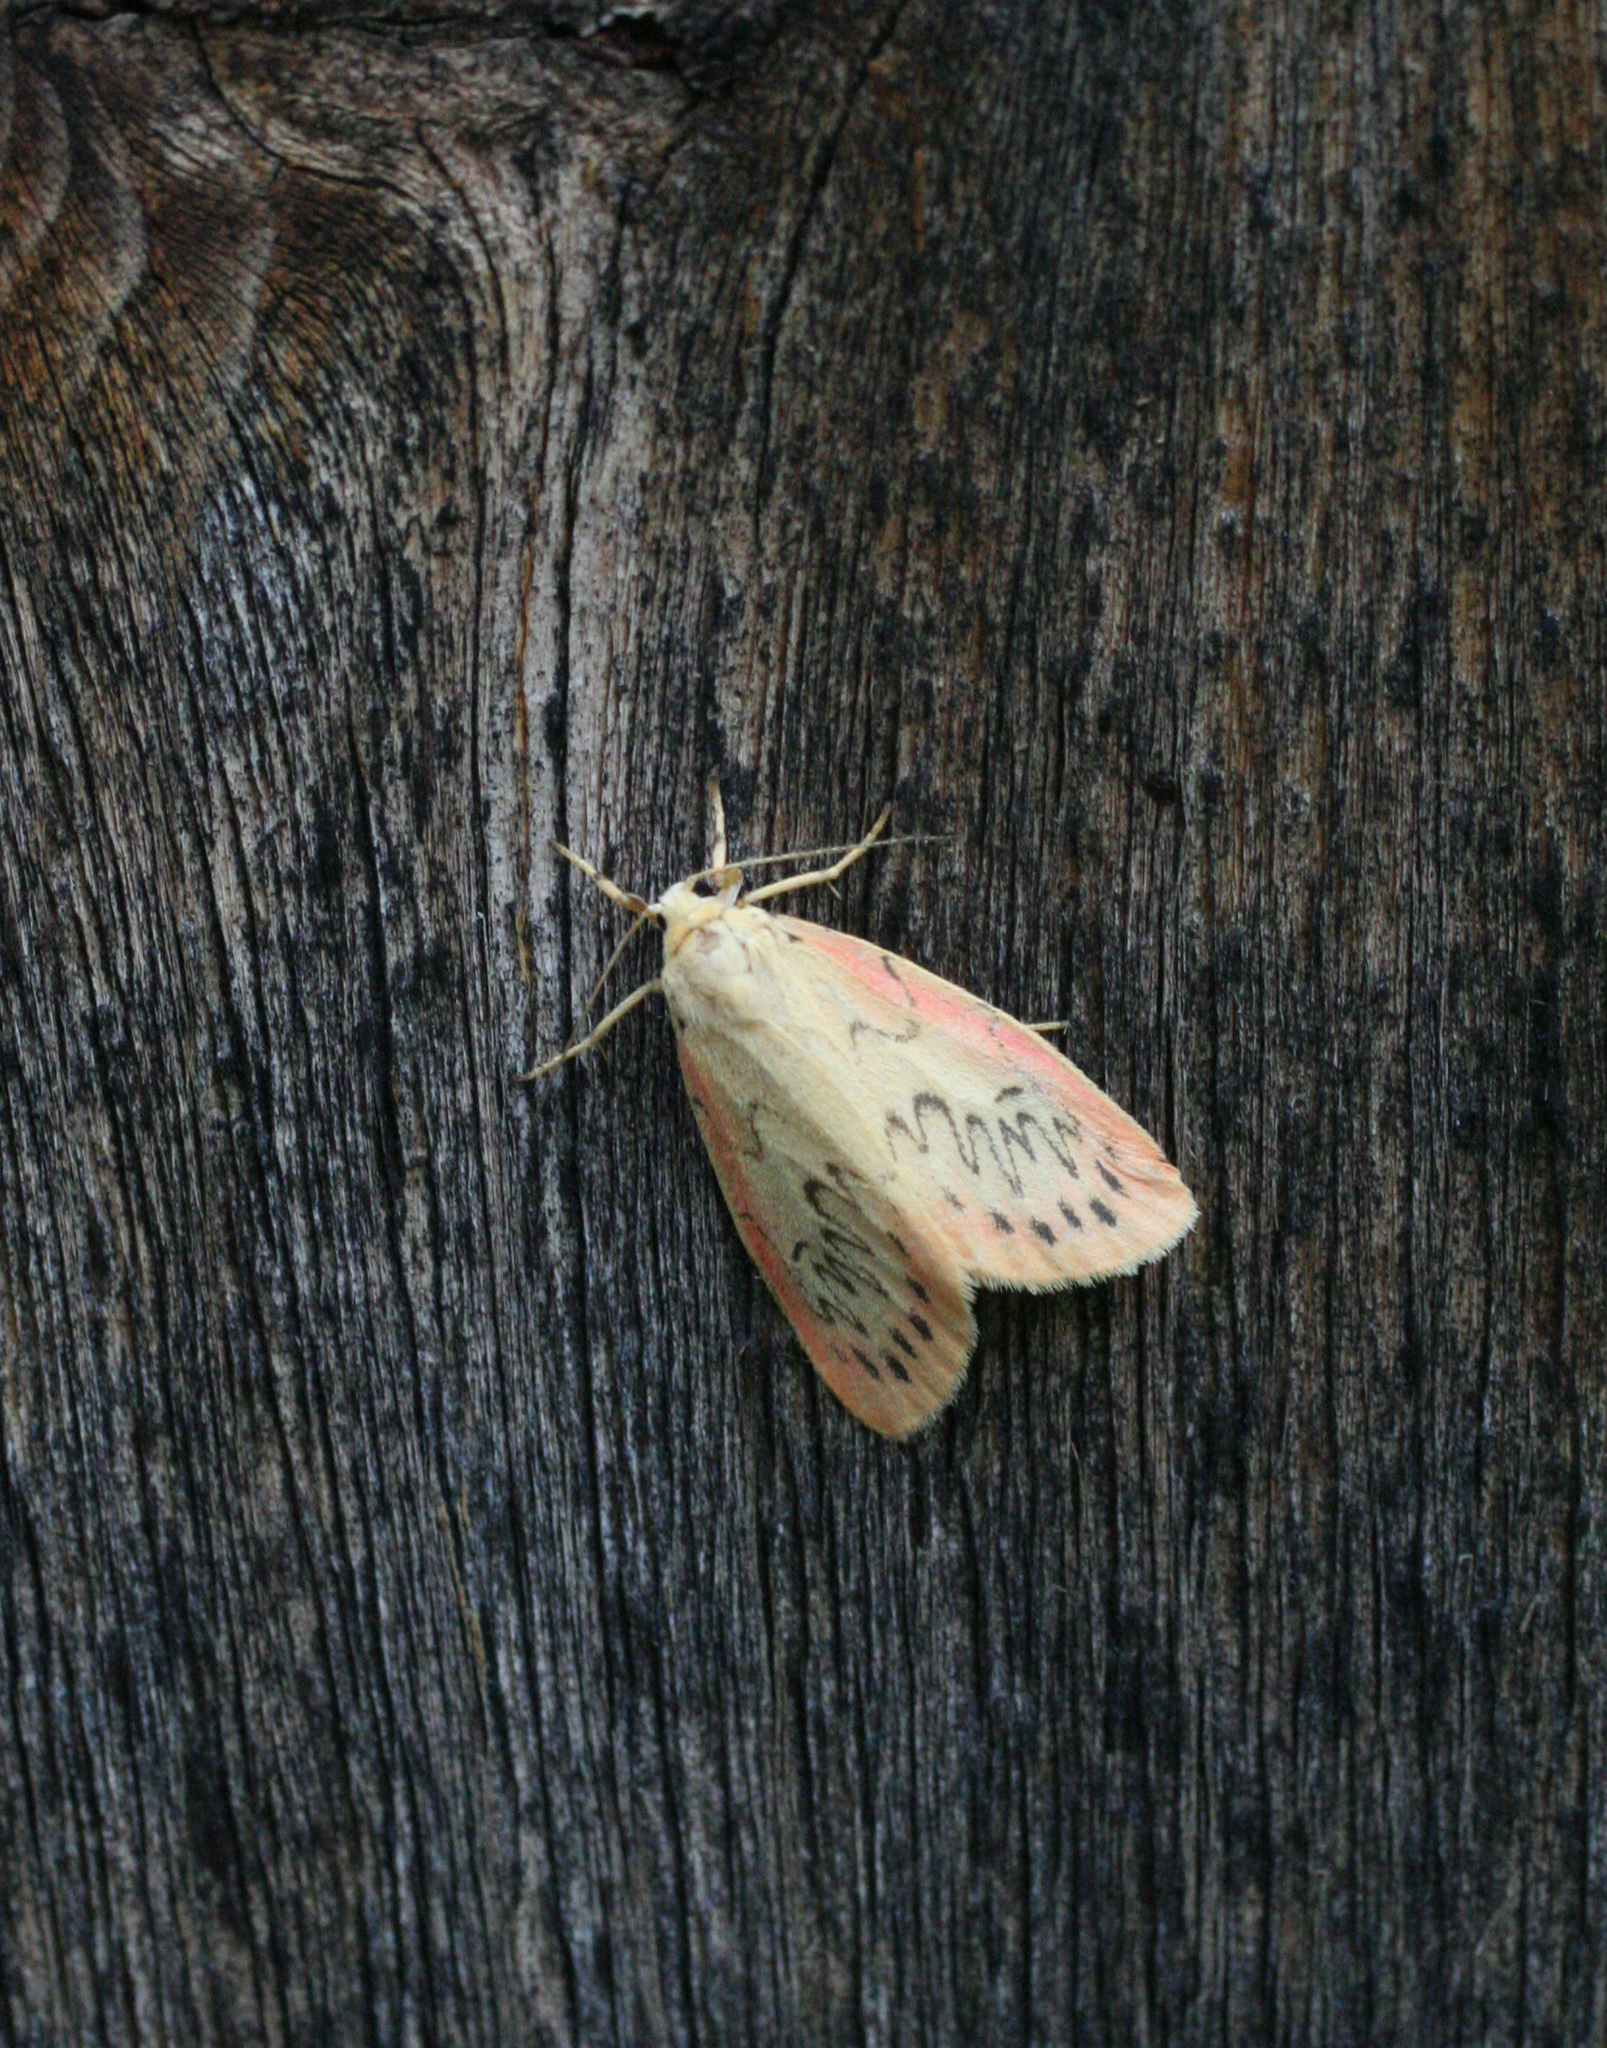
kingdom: Animalia
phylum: Arthropoda
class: Insecta
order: Lepidoptera
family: Erebidae
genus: Miltochrista
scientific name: Miltochrista miniata
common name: Rosy footman
